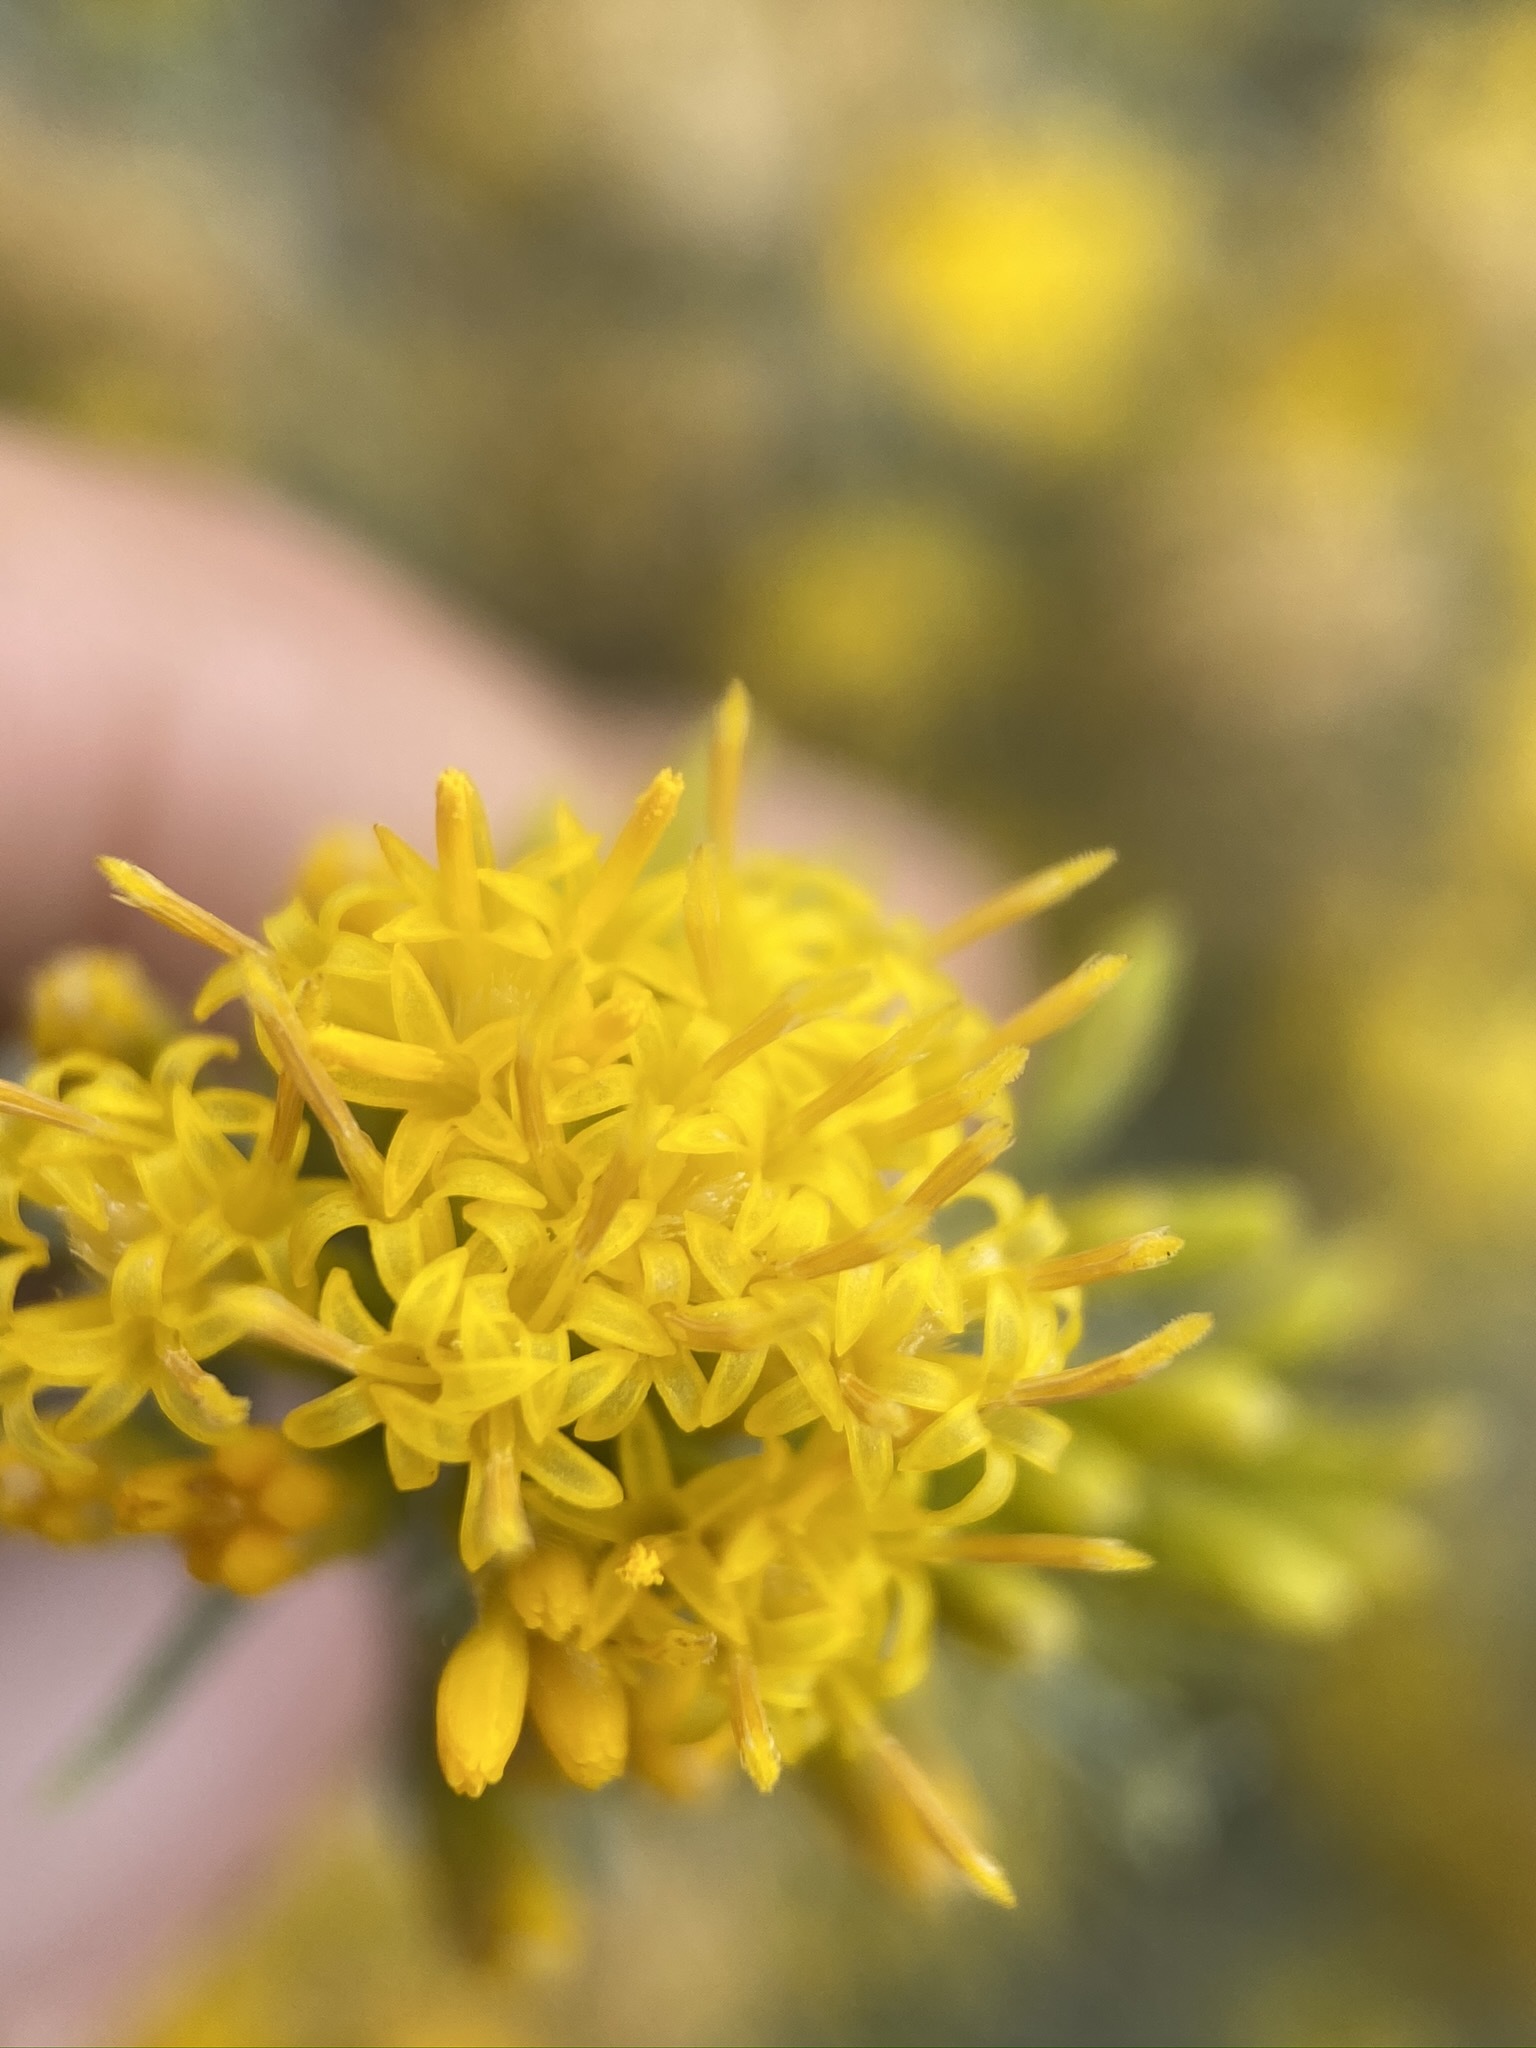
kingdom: Plantae
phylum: Tracheophyta
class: Magnoliopsida
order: Asterales
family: Asteraceae
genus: Ericameria
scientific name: Ericameria nauseosa
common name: Rubber rabbitbrush
